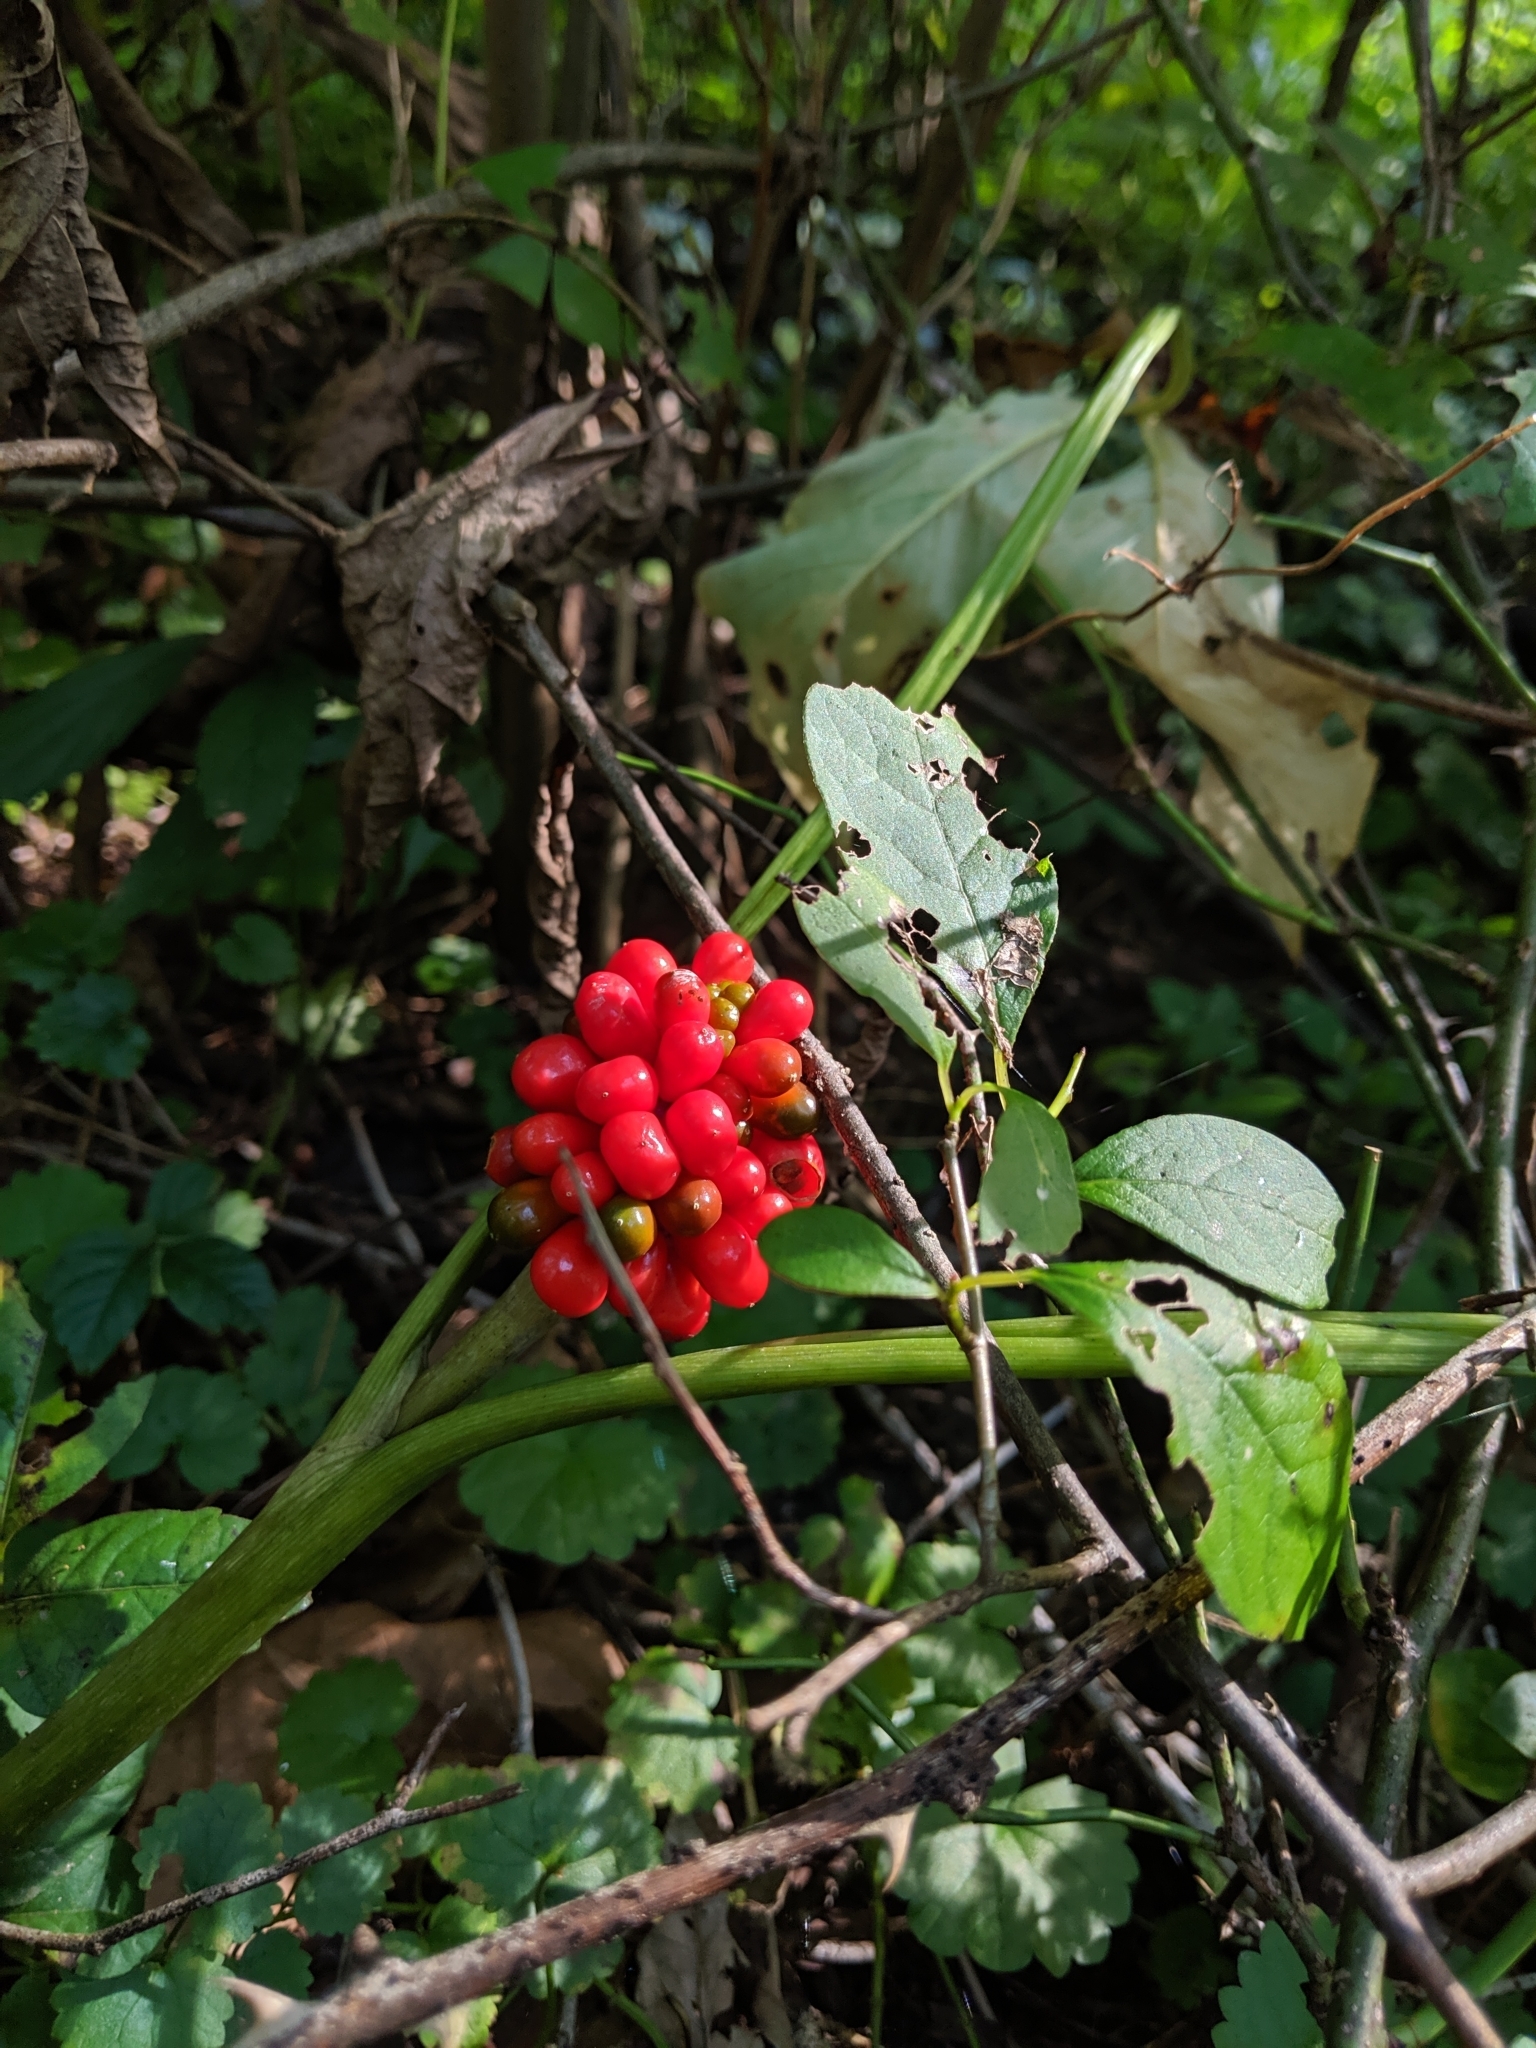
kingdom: Plantae
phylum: Tracheophyta
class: Liliopsida
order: Alismatales
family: Araceae
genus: Arisaema
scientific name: Arisaema triphyllum
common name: Jack-in-the-pulpit
